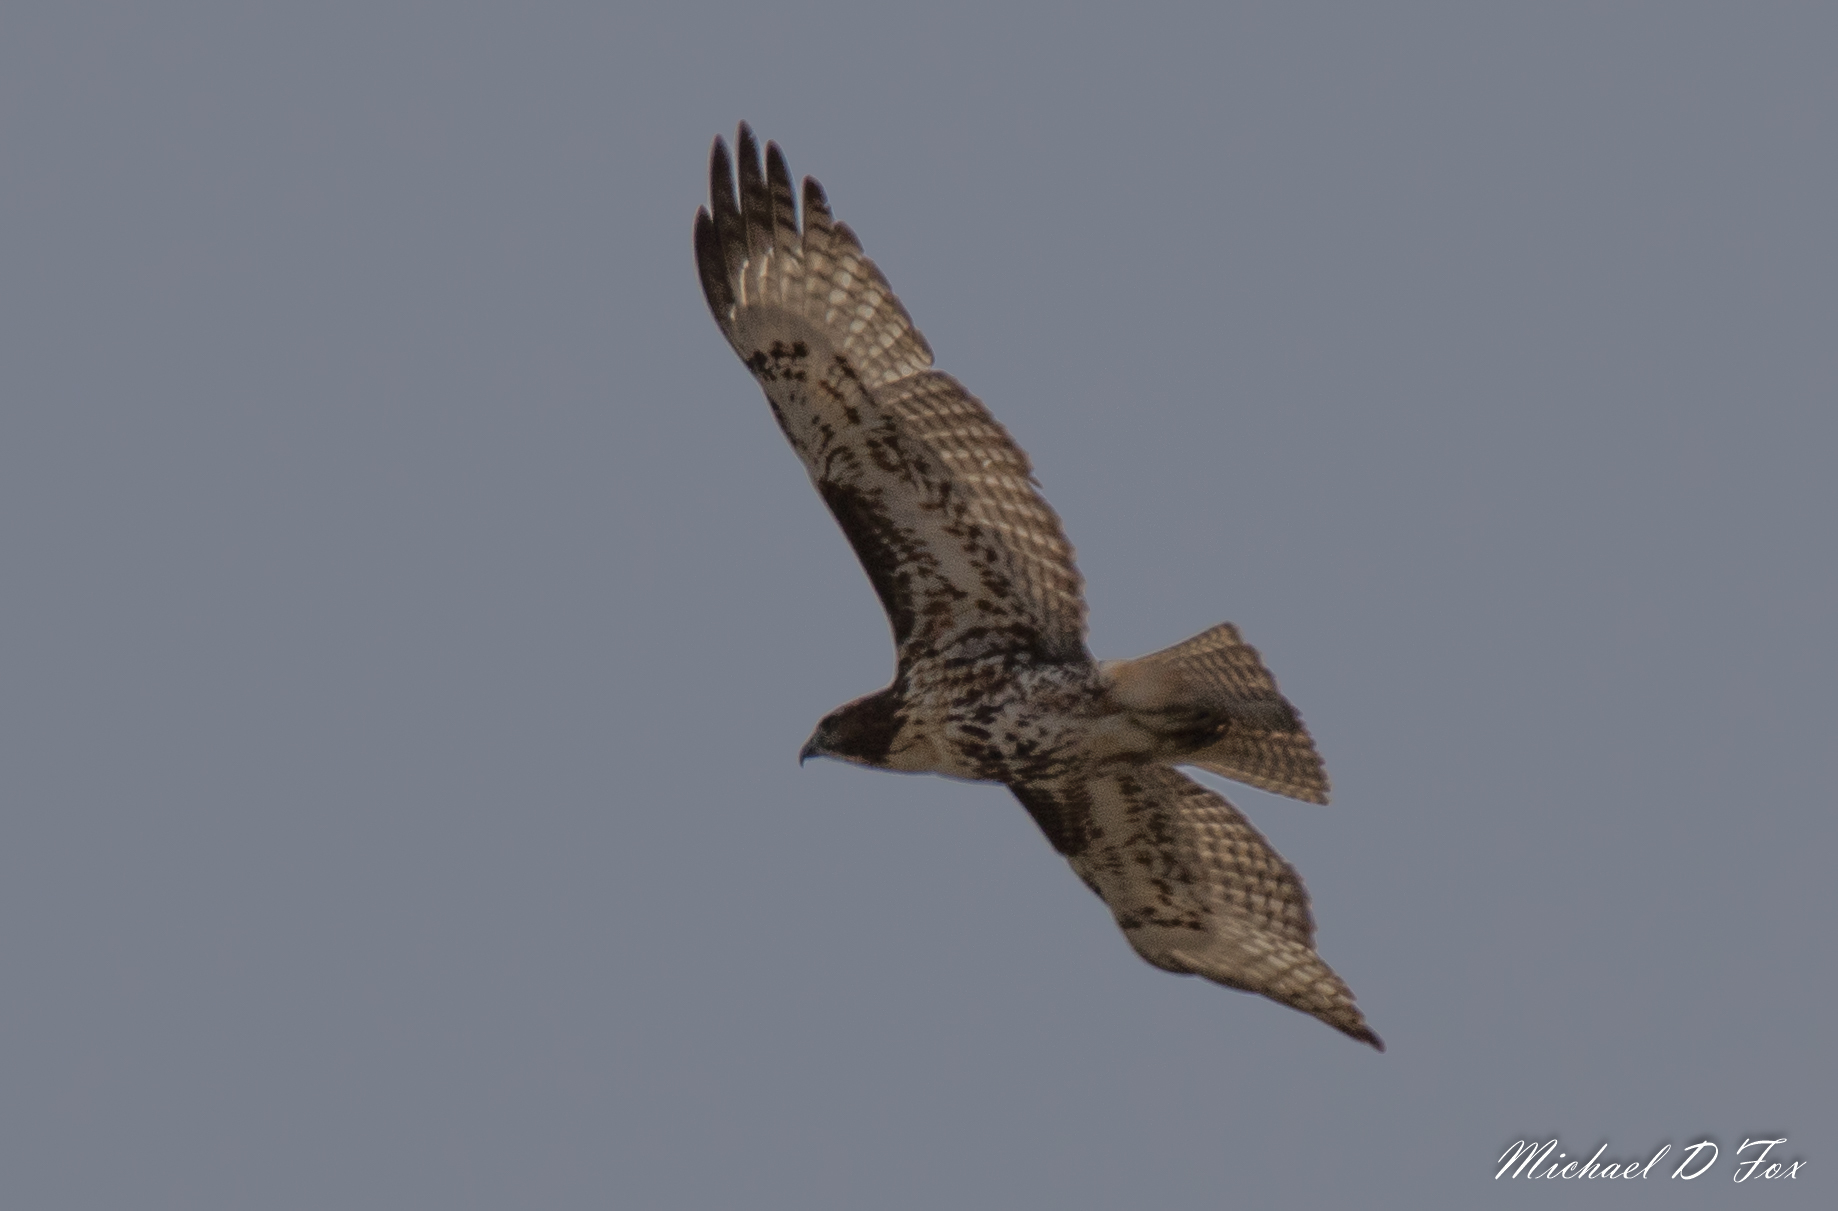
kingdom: Animalia
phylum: Chordata
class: Aves
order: Accipitriformes
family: Accipitridae
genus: Buteo
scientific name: Buteo jamaicensis
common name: Red-tailed hawk
